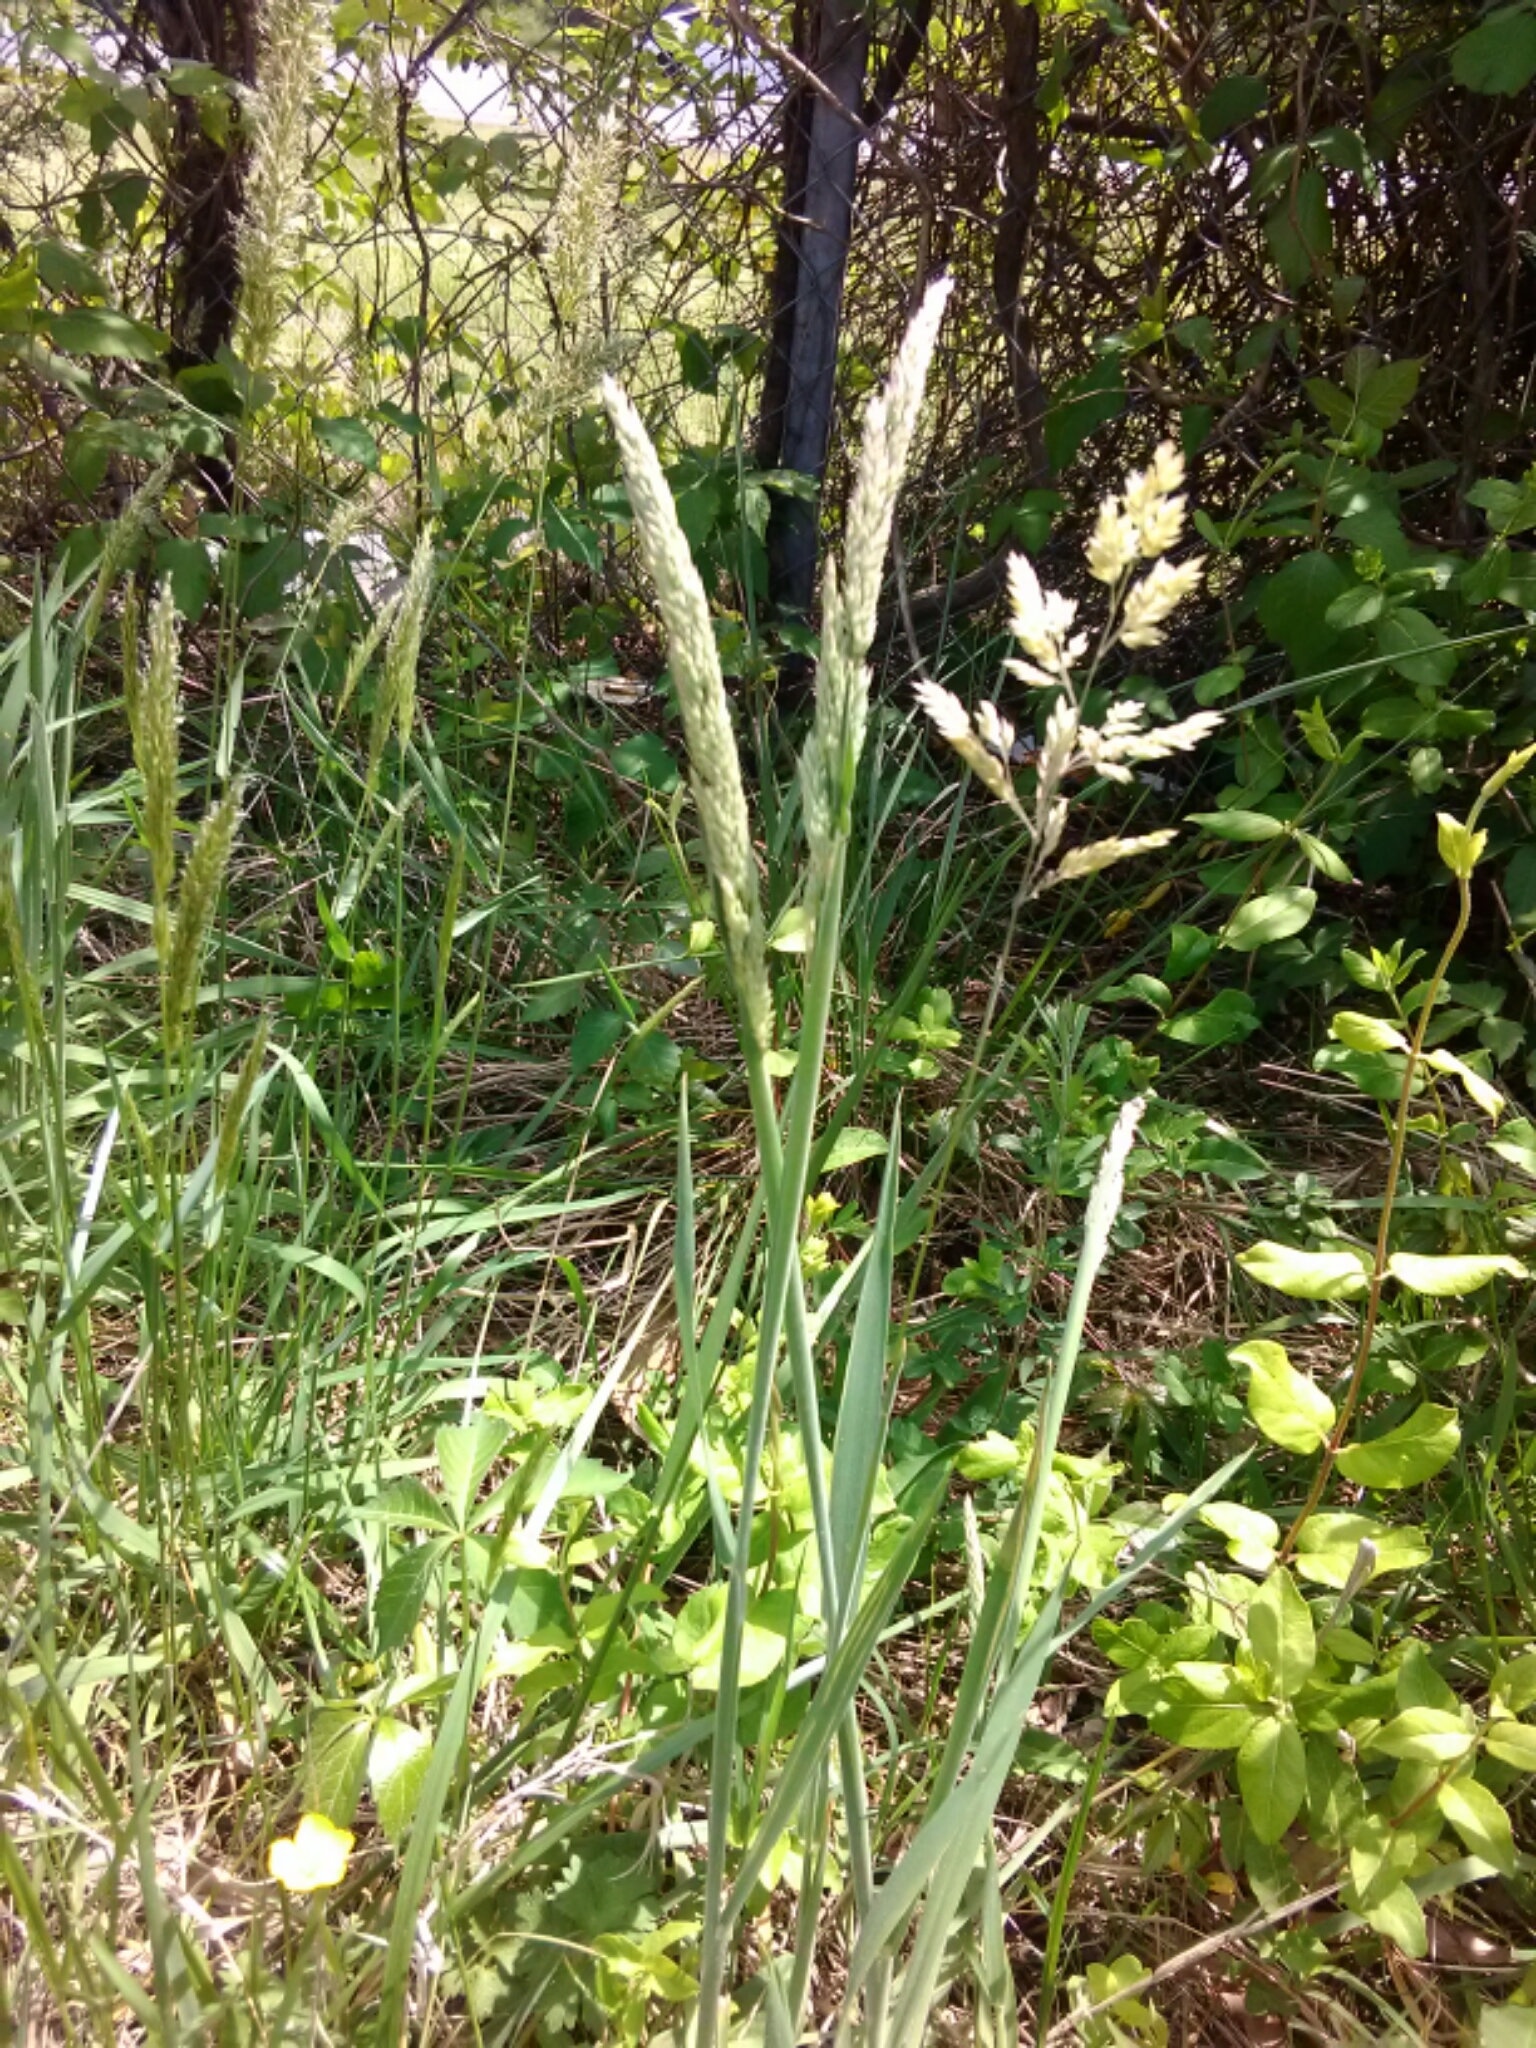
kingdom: Plantae
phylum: Tracheophyta
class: Liliopsida
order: Poales
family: Poaceae
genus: Holcus
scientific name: Holcus lanatus
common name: Yorkshire-fog
